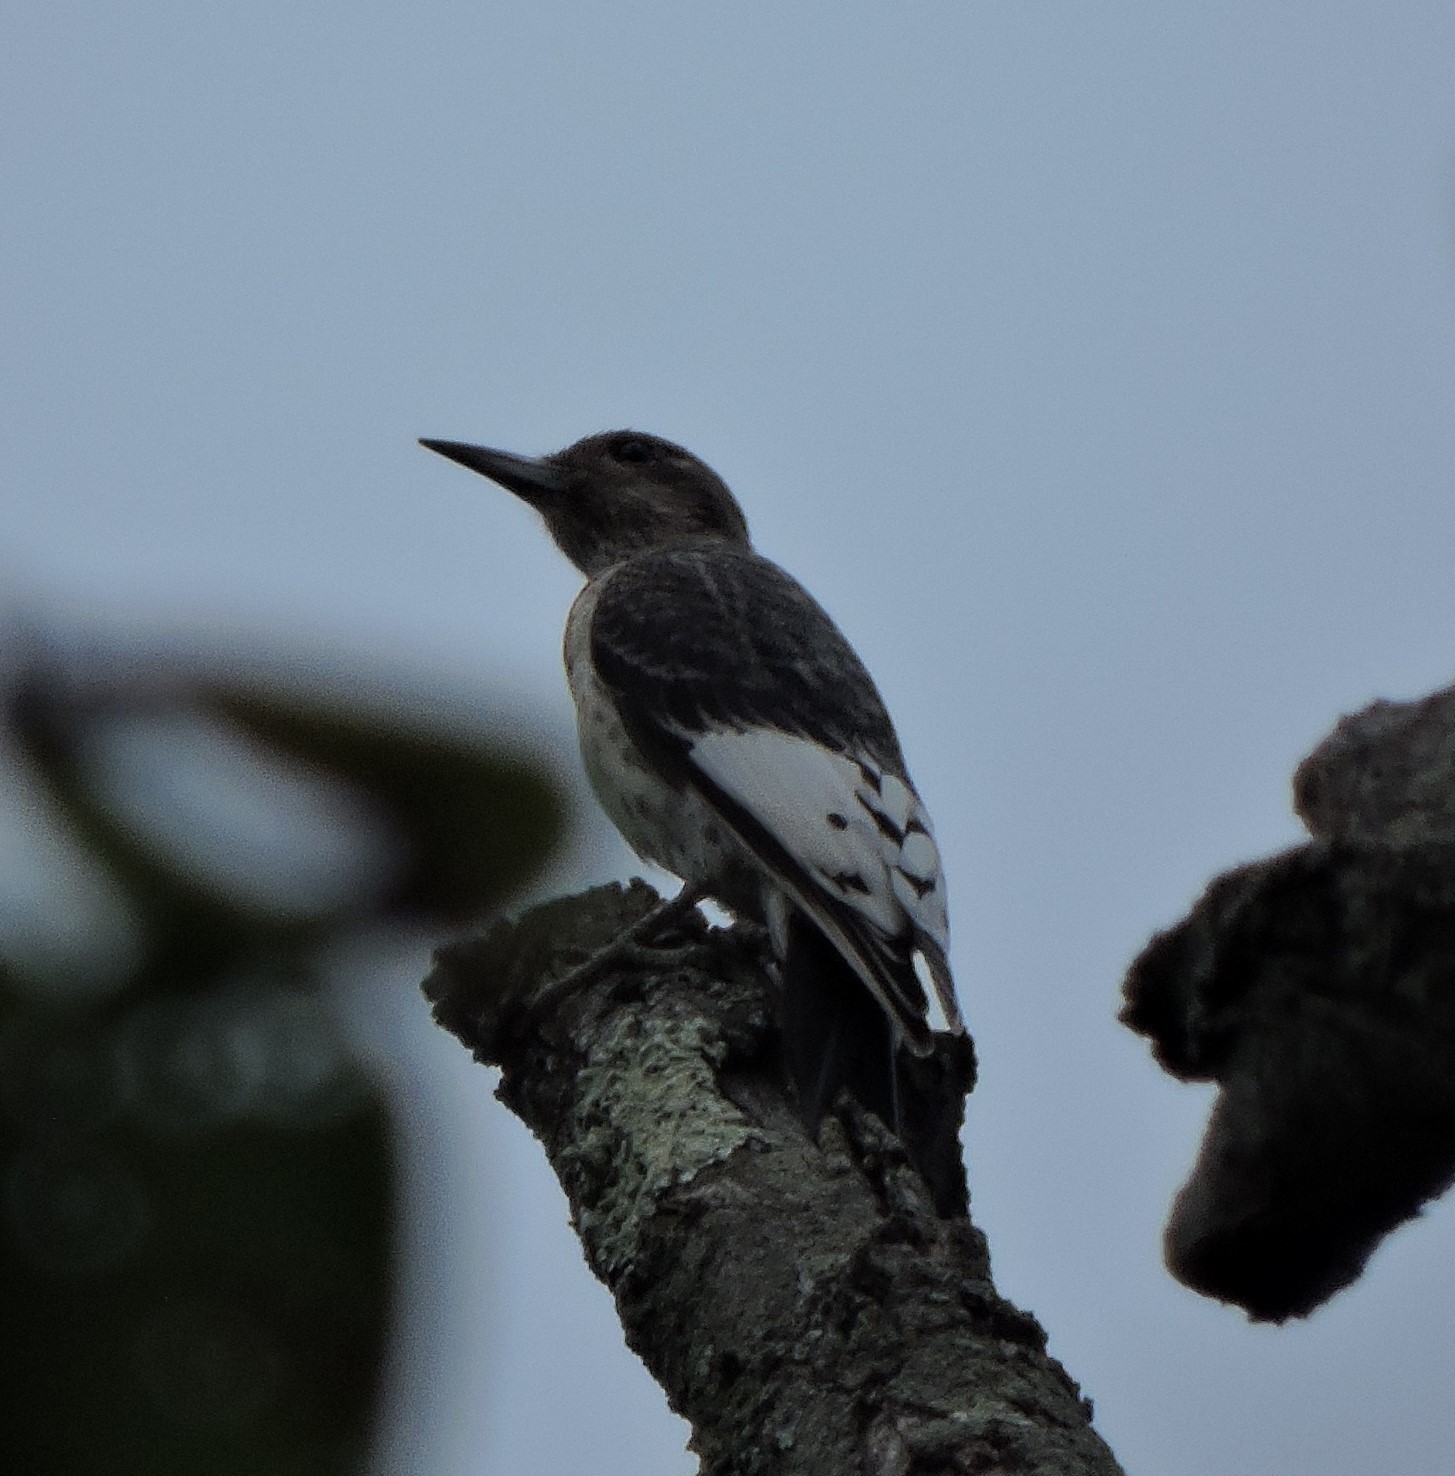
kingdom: Animalia
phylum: Chordata
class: Aves
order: Piciformes
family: Picidae
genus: Melanerpes
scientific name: Melanerpes erythrocephalus
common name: Red-headed woodpecker
